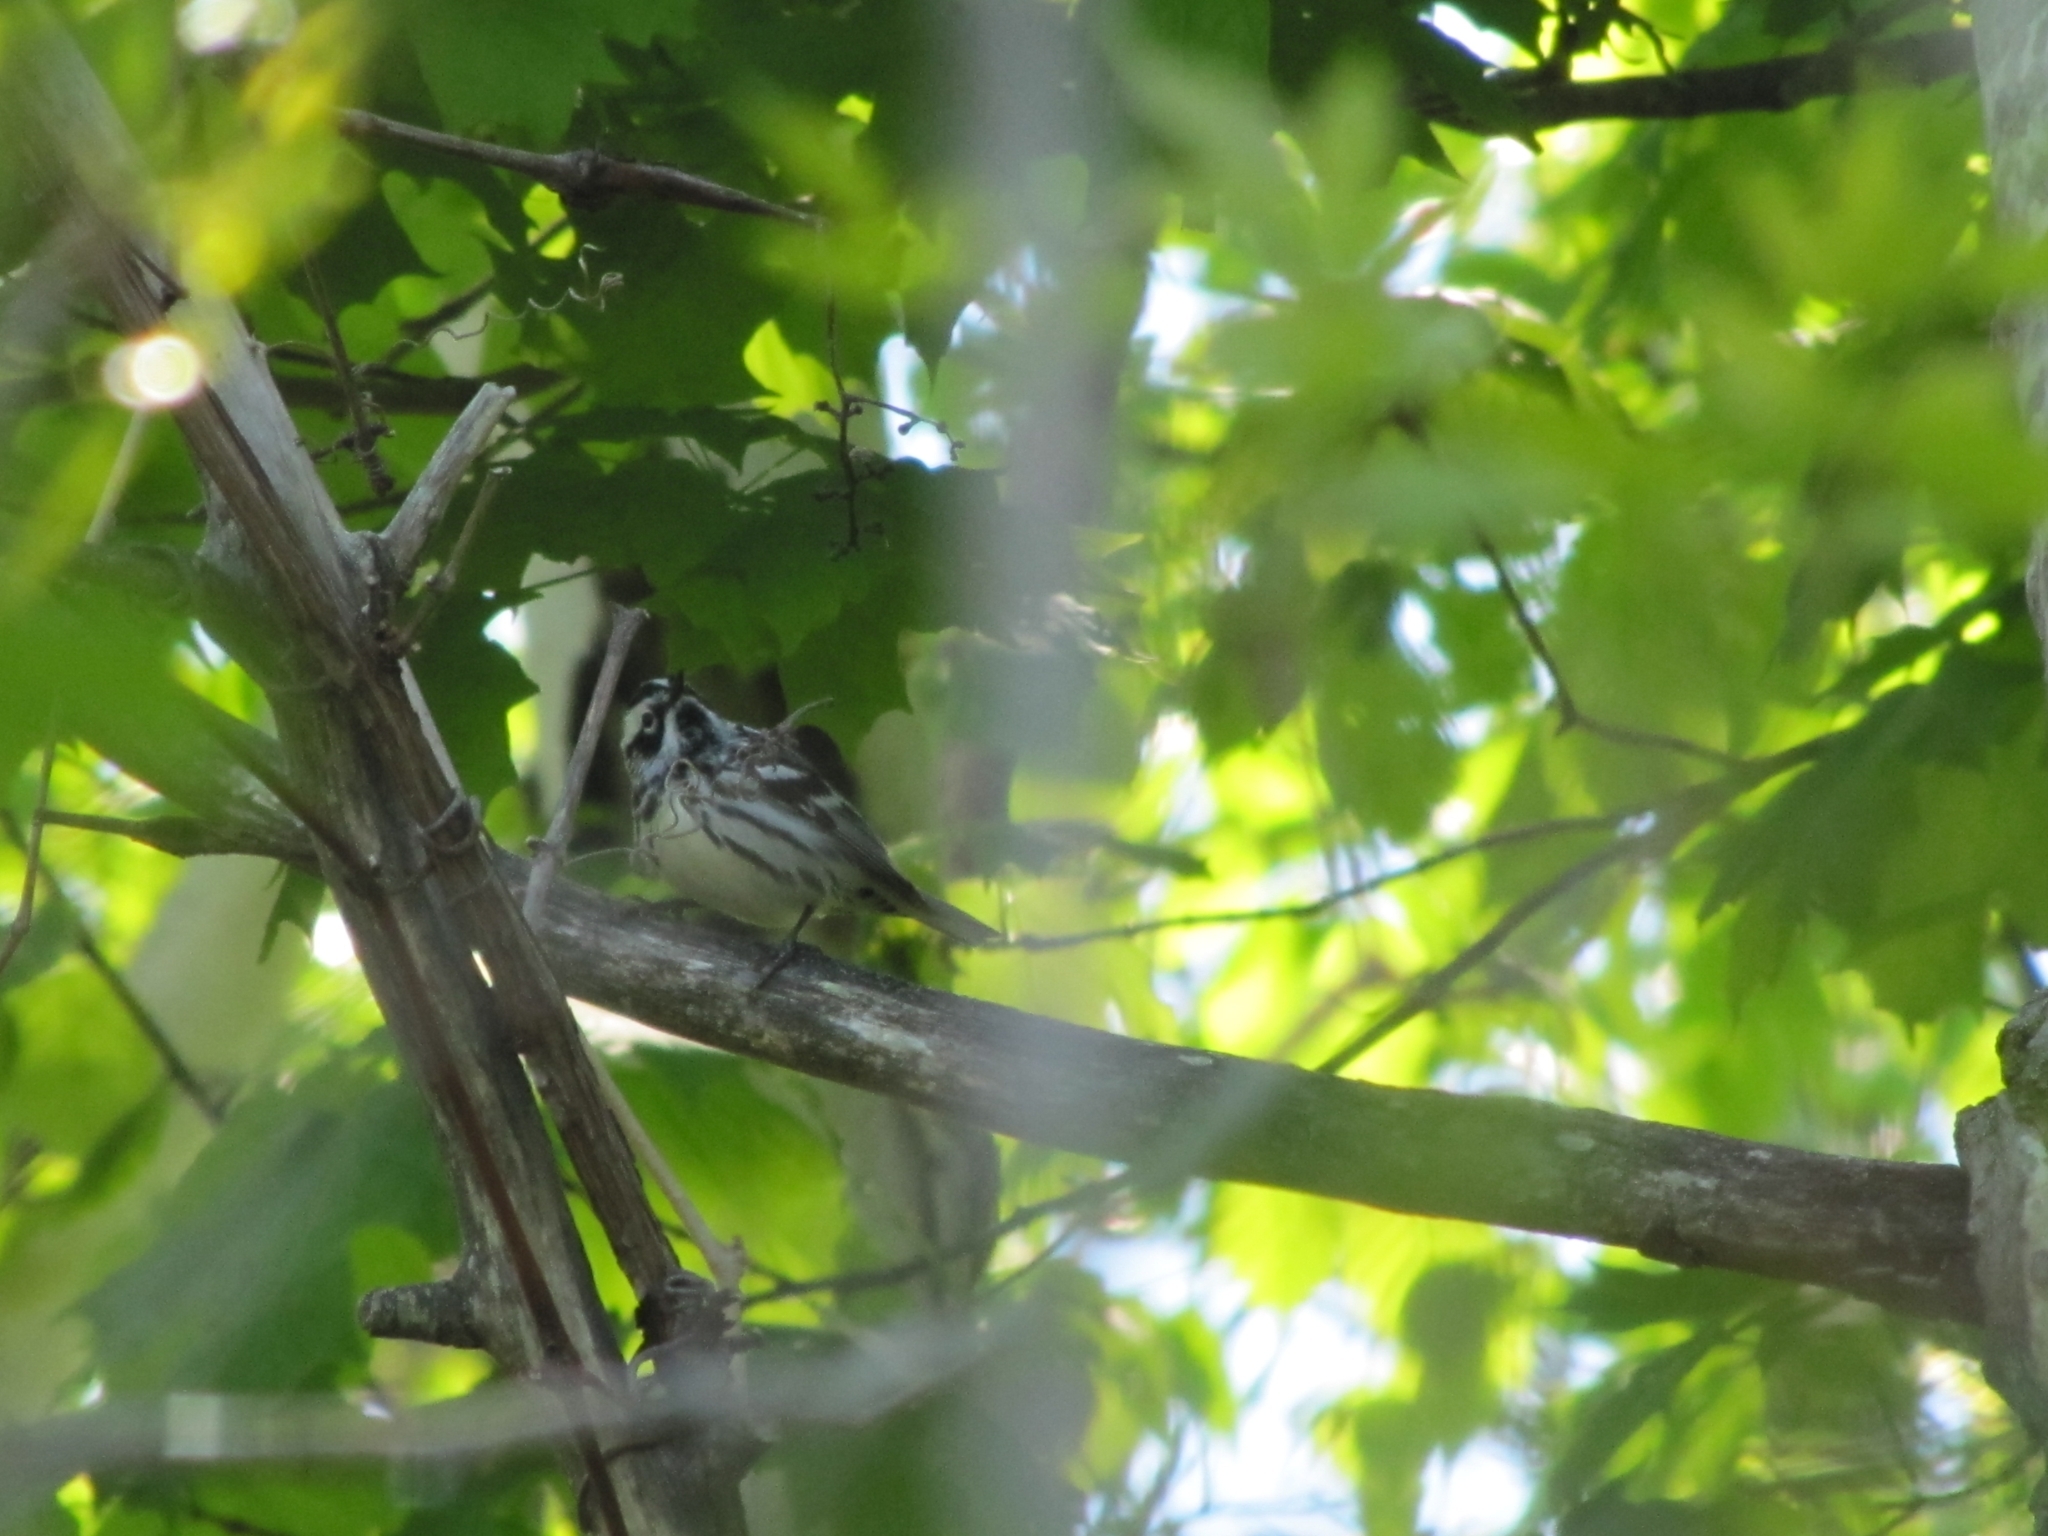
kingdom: Animalia
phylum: Chordata
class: Aves
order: Passeriformes
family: Parulidae
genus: Mniotilta
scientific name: Mniotilta varia
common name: Black-and-white warbler
